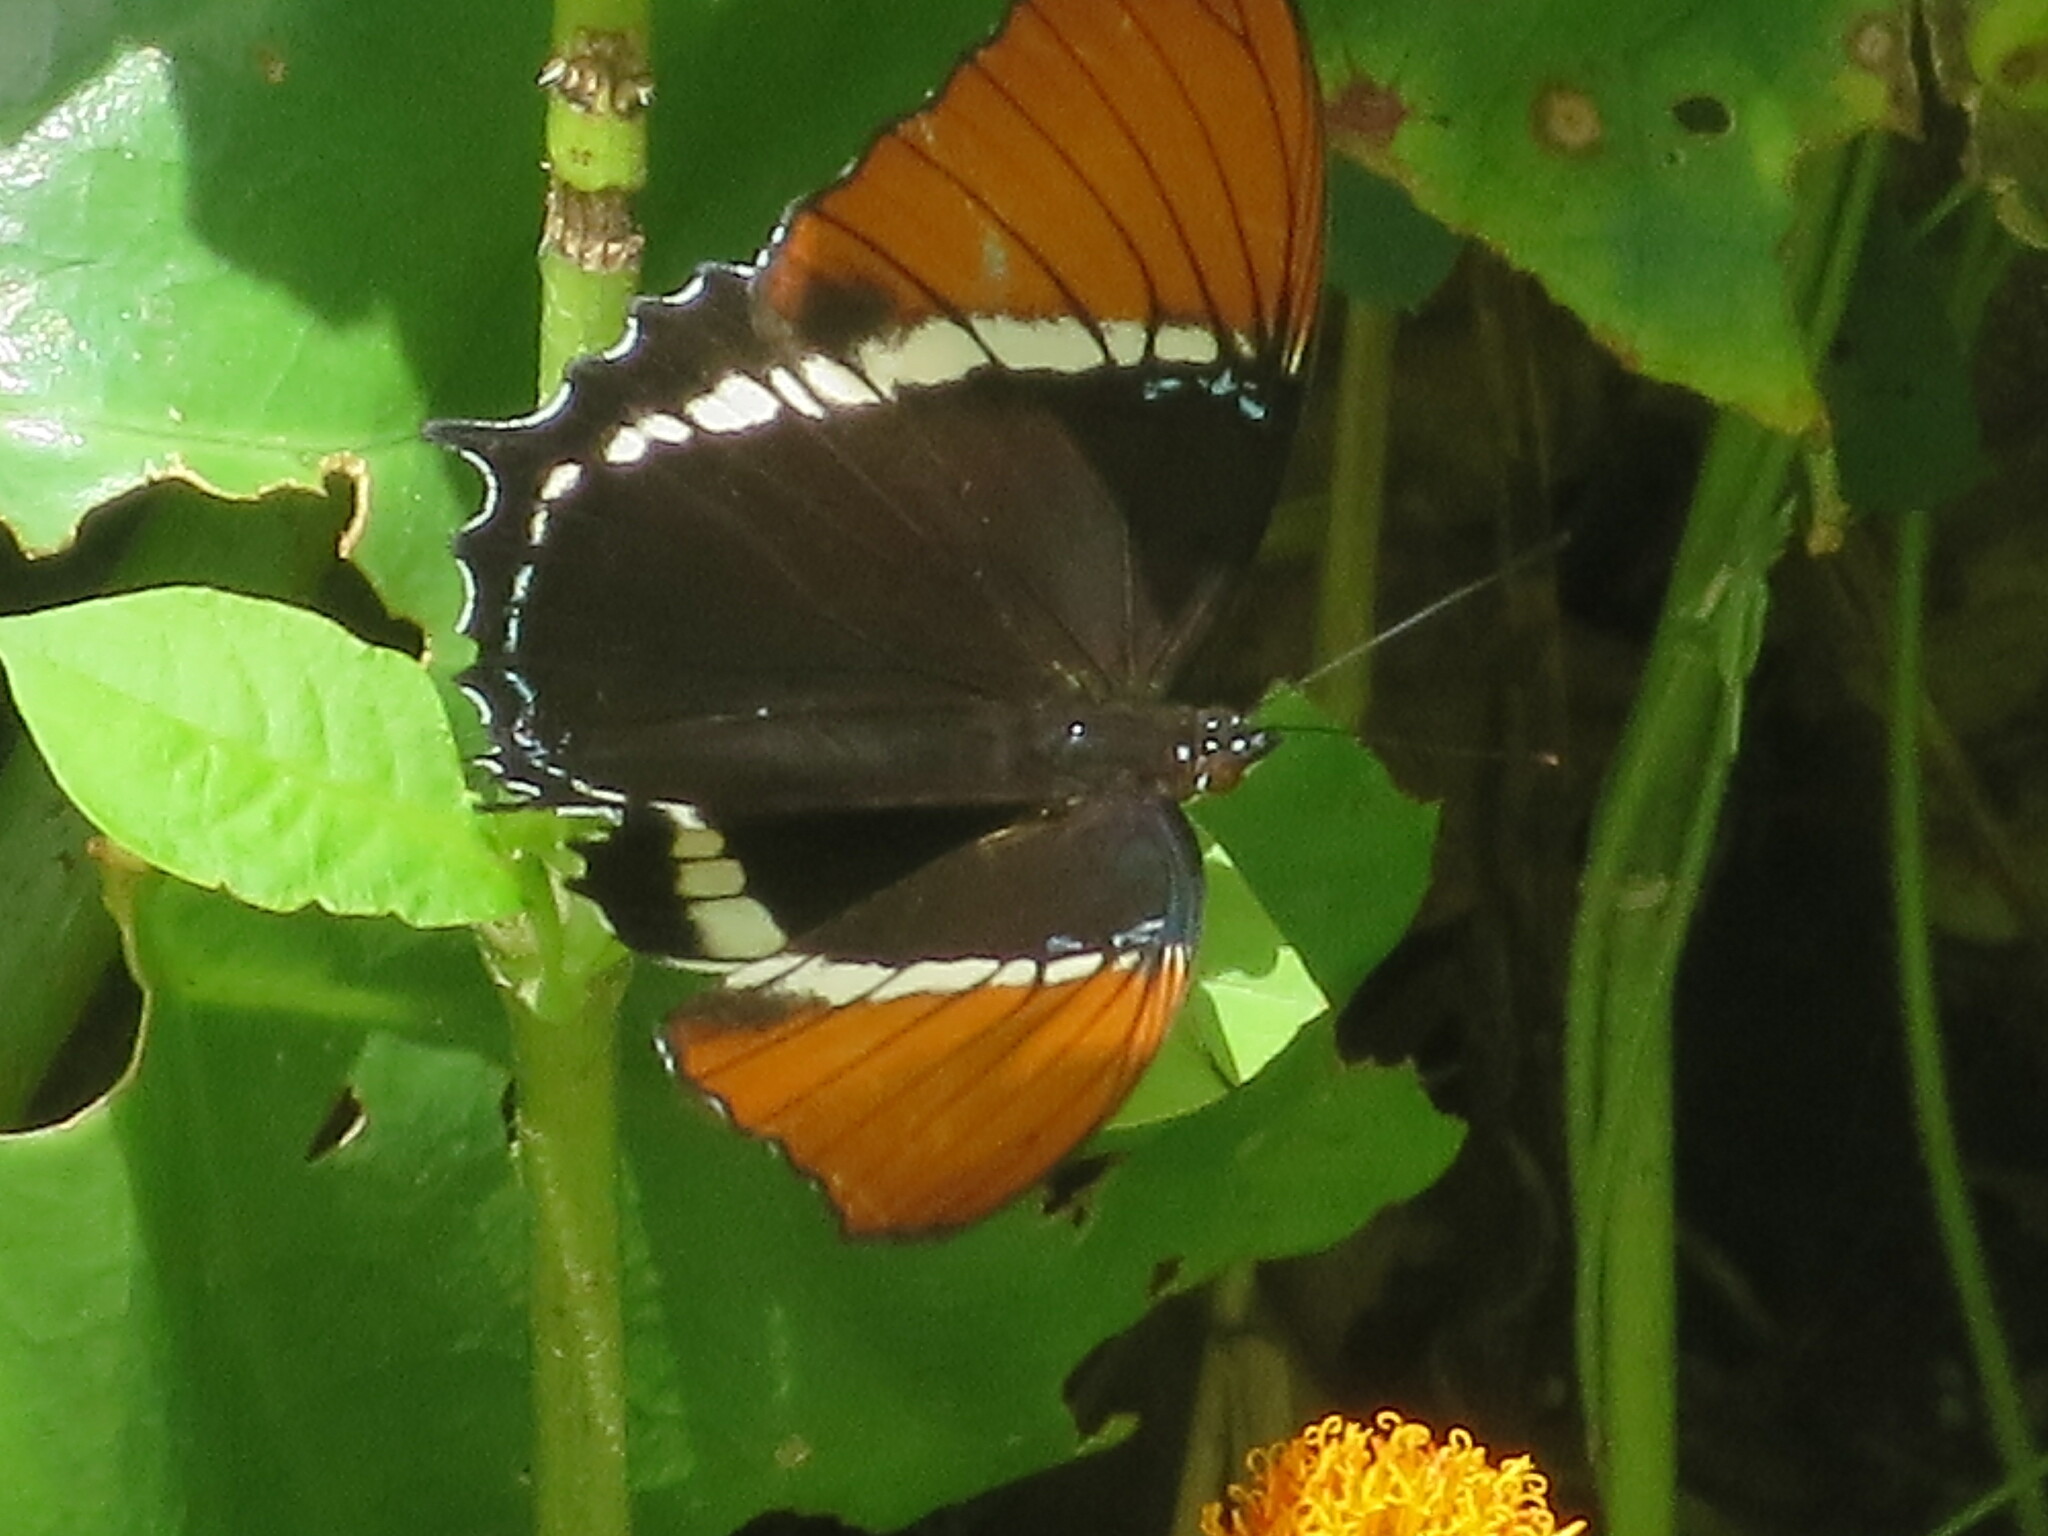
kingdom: Animalia
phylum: Arthropoda
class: Insecta
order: Lepidoptera
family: Nymphalidae
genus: Siproeta
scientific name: Siproeta epaphus
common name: Rusty-tipped page
